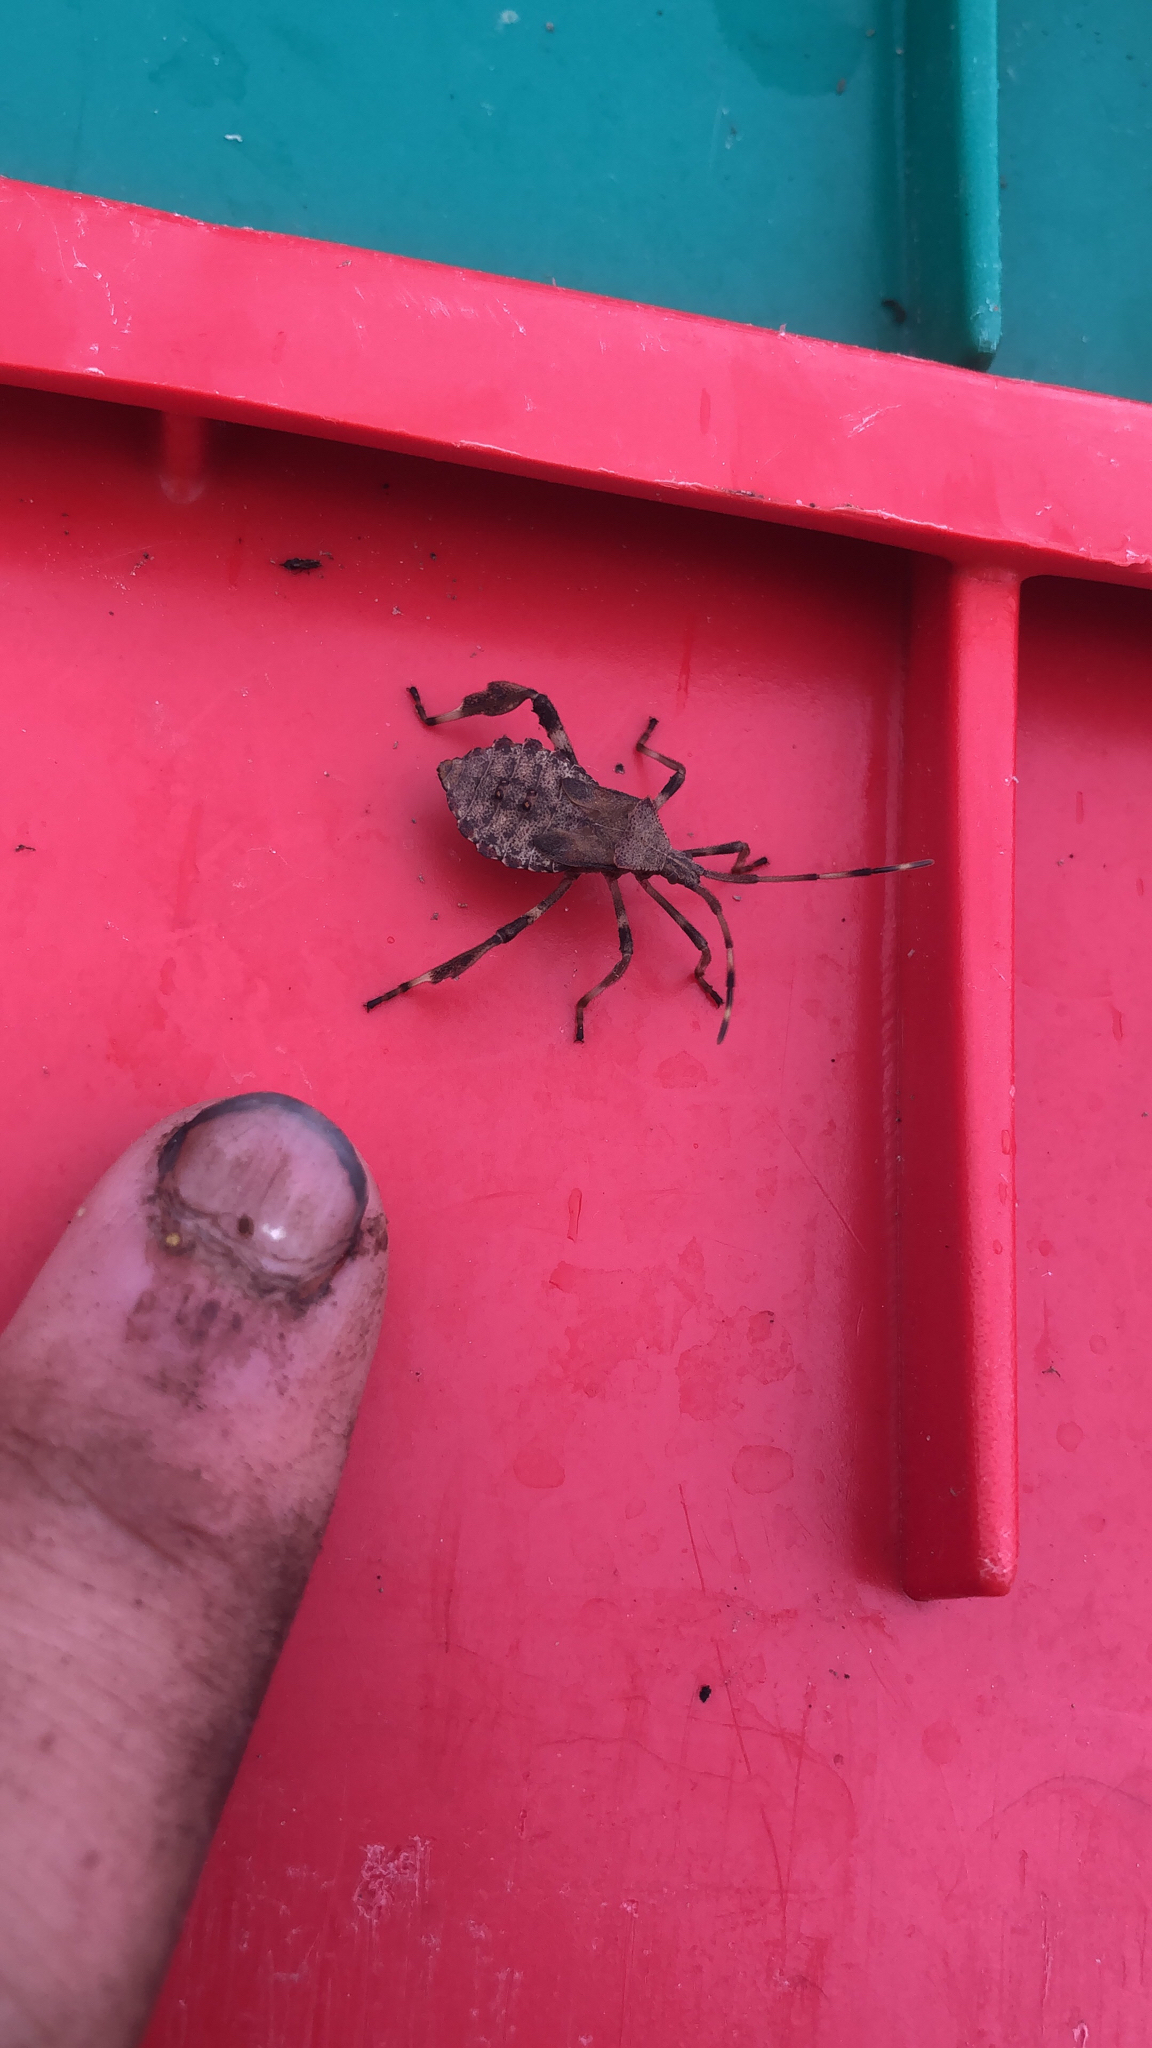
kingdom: Animalia
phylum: Arthropoda
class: Insecta
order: Hemiptera
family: Coreidae
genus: Acanthocephala
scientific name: Acanthocephala terminalis
